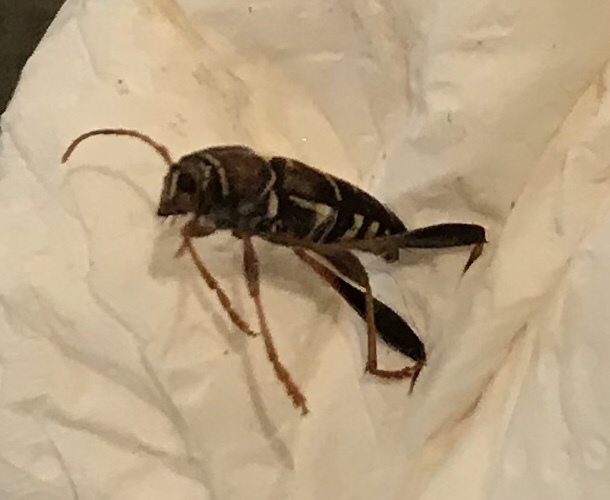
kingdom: Animalia
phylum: Arthropoda
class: Insecta
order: Coleoptera
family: Cerambycidae
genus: Neoclytus
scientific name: Neoclytus mucronatus
